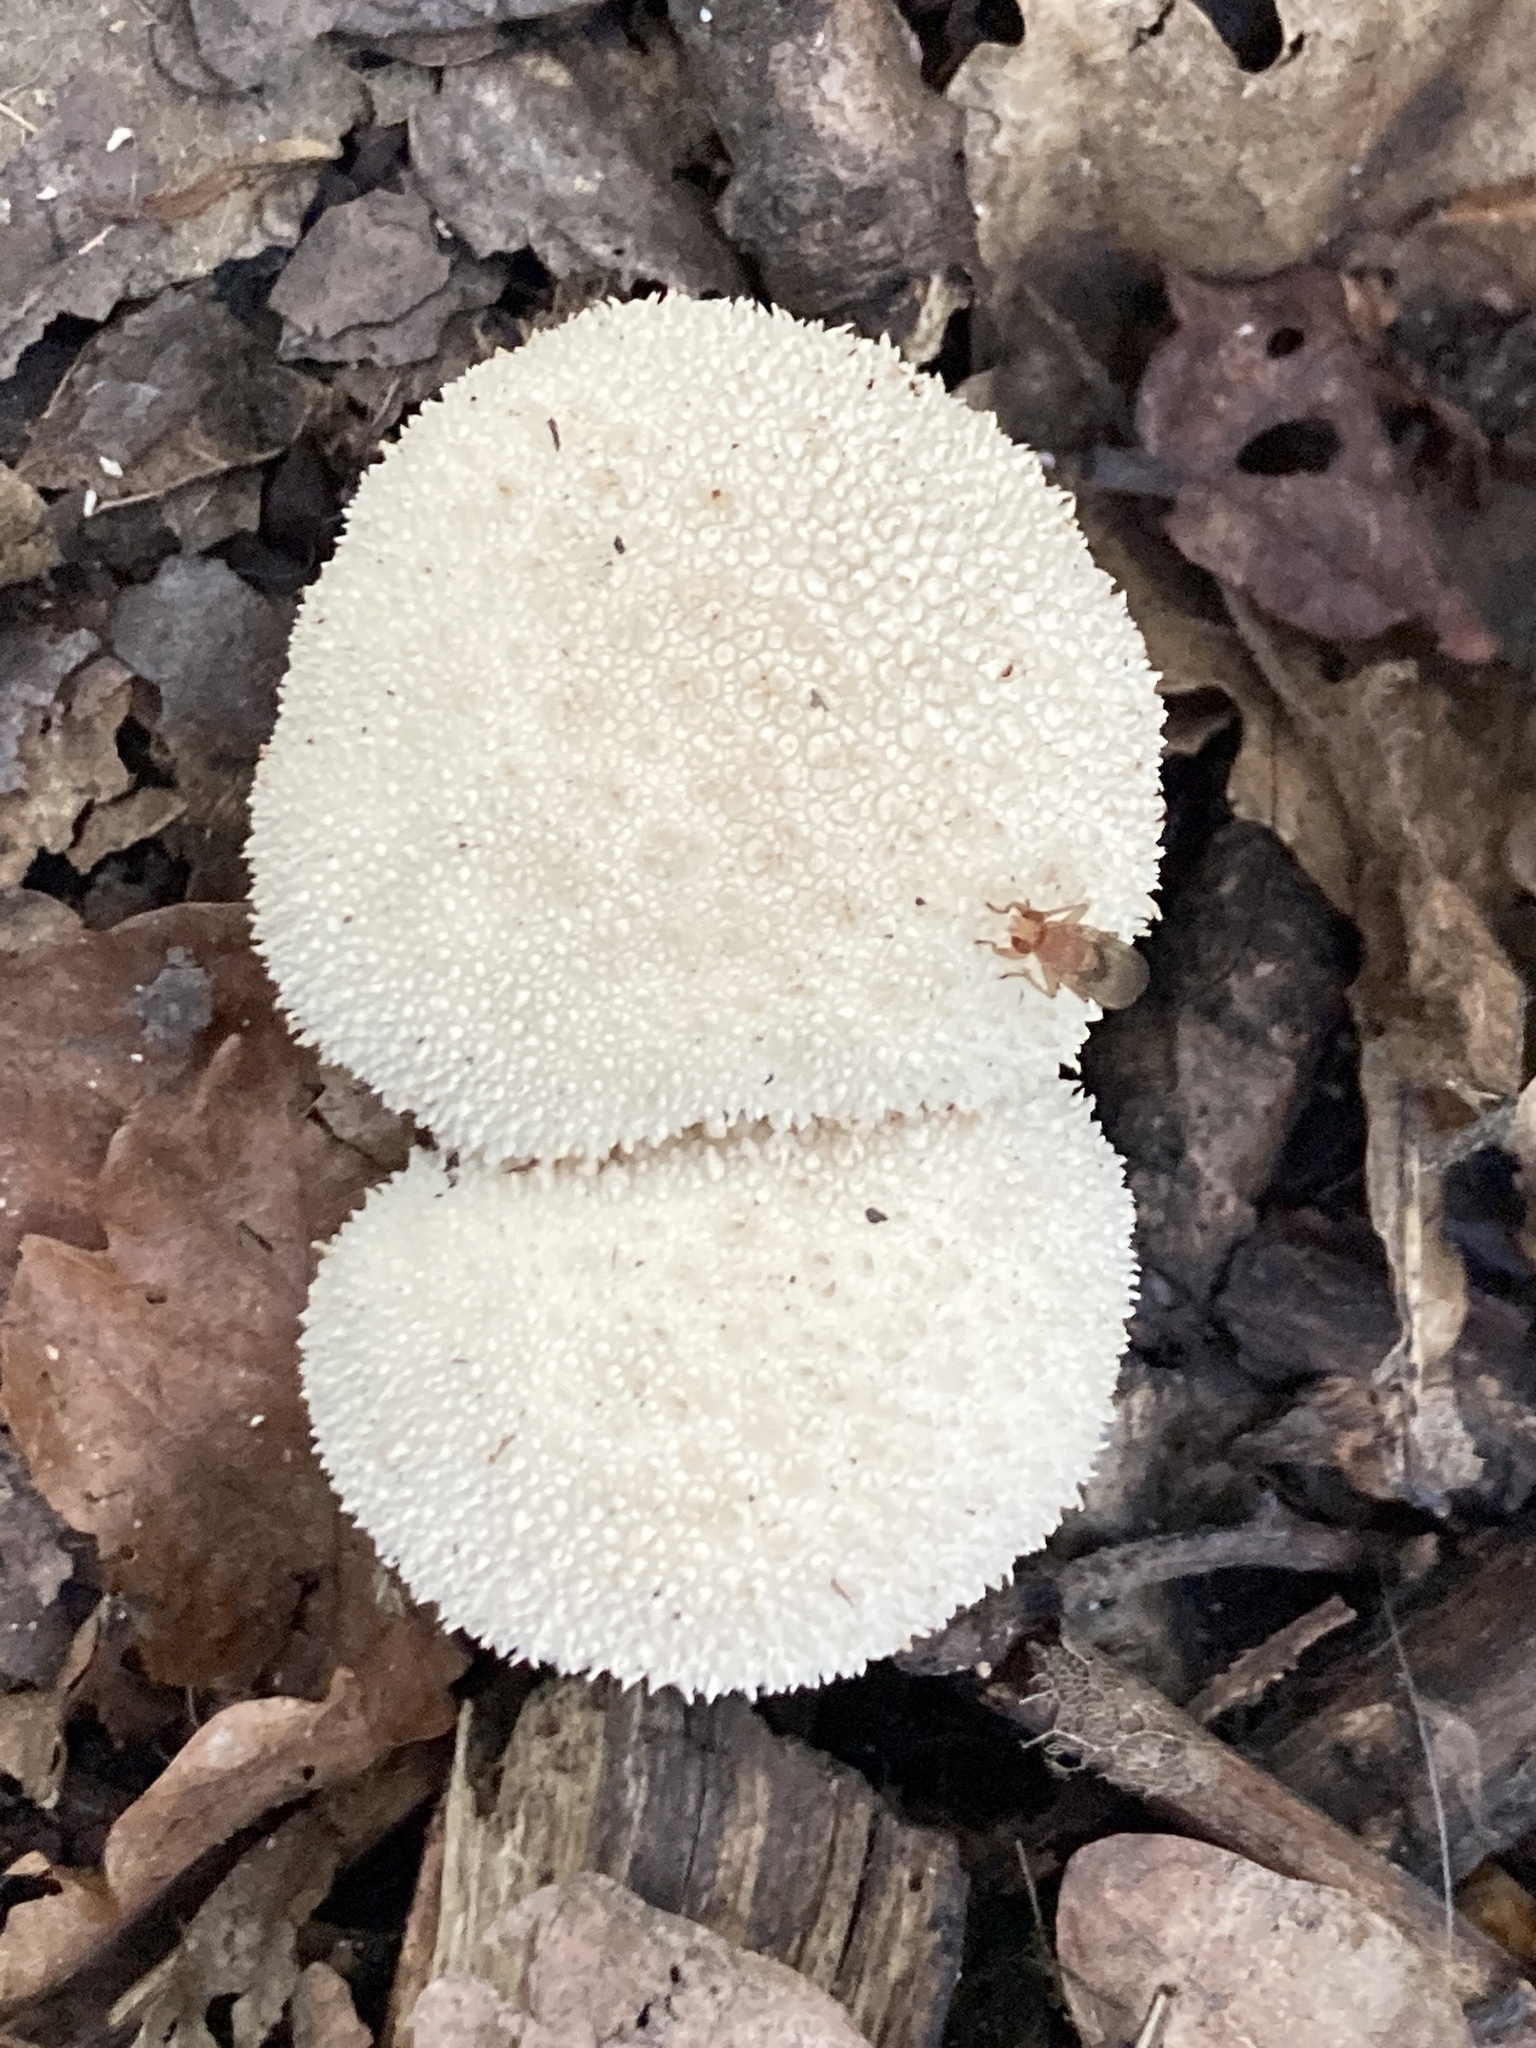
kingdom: Fungi
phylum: Basidiomycota
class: Agaricomycetes
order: Agaricales
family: Lycoperdaceae
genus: Lycoperdon
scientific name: Lycoperdon perlatum
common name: Common puffball
